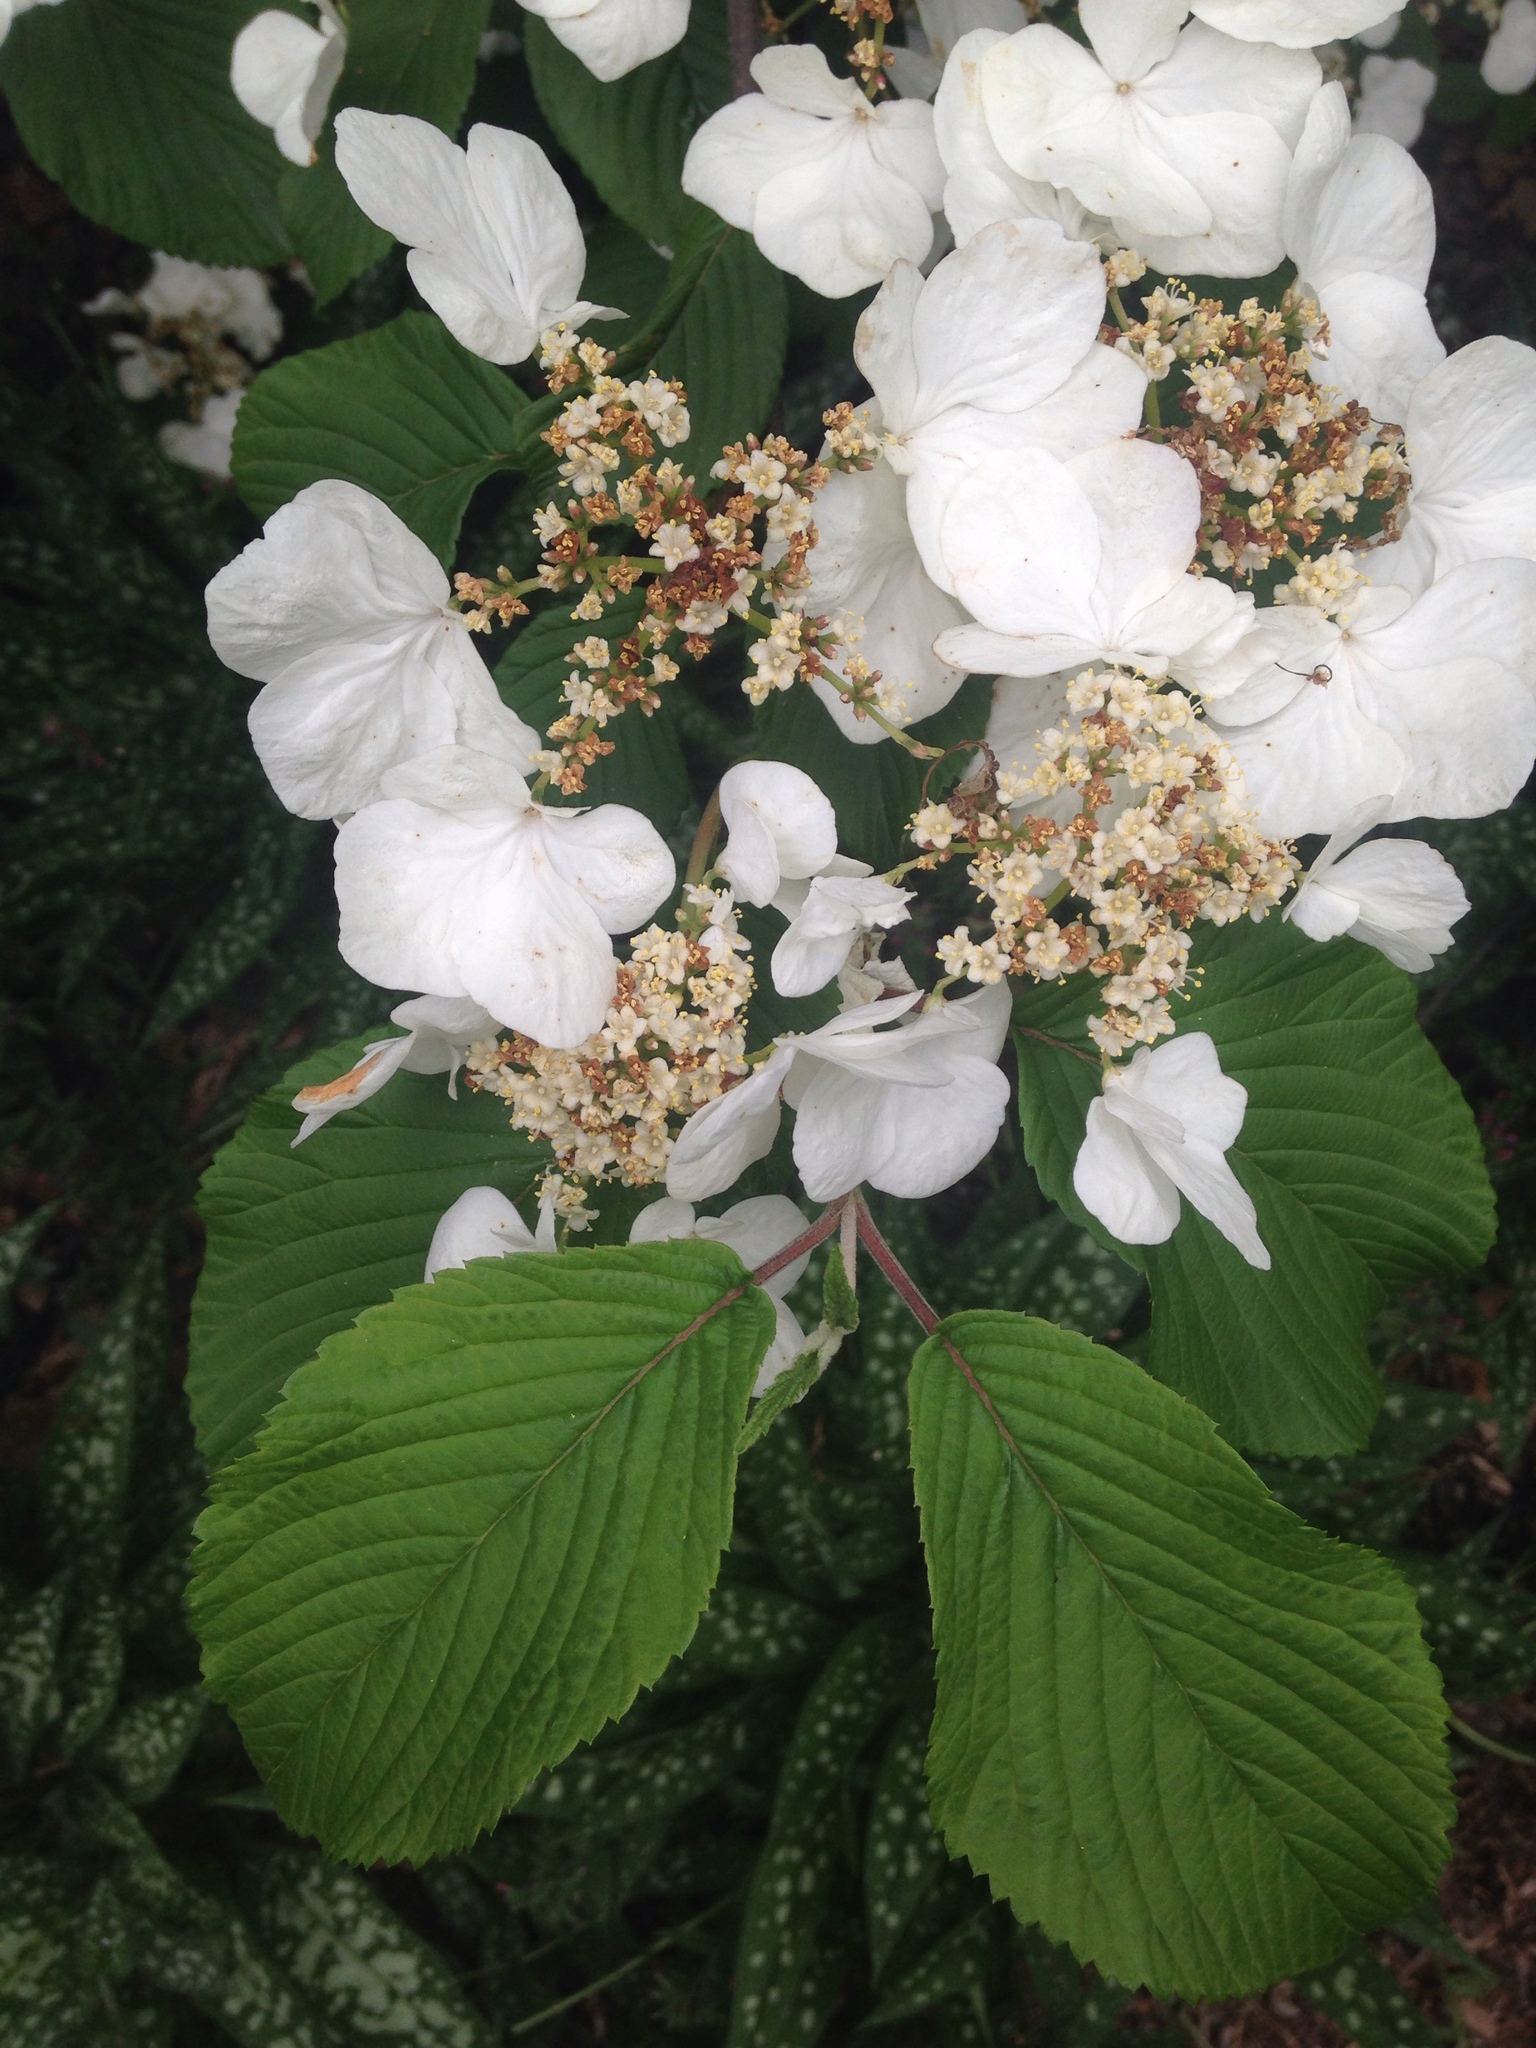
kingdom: Plantae
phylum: Tracheophyta
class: Magnoliopsida
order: Dipsacales
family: Viburnaceae
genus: Viburnum
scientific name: Viburnum plicatum
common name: Japanese snowball
